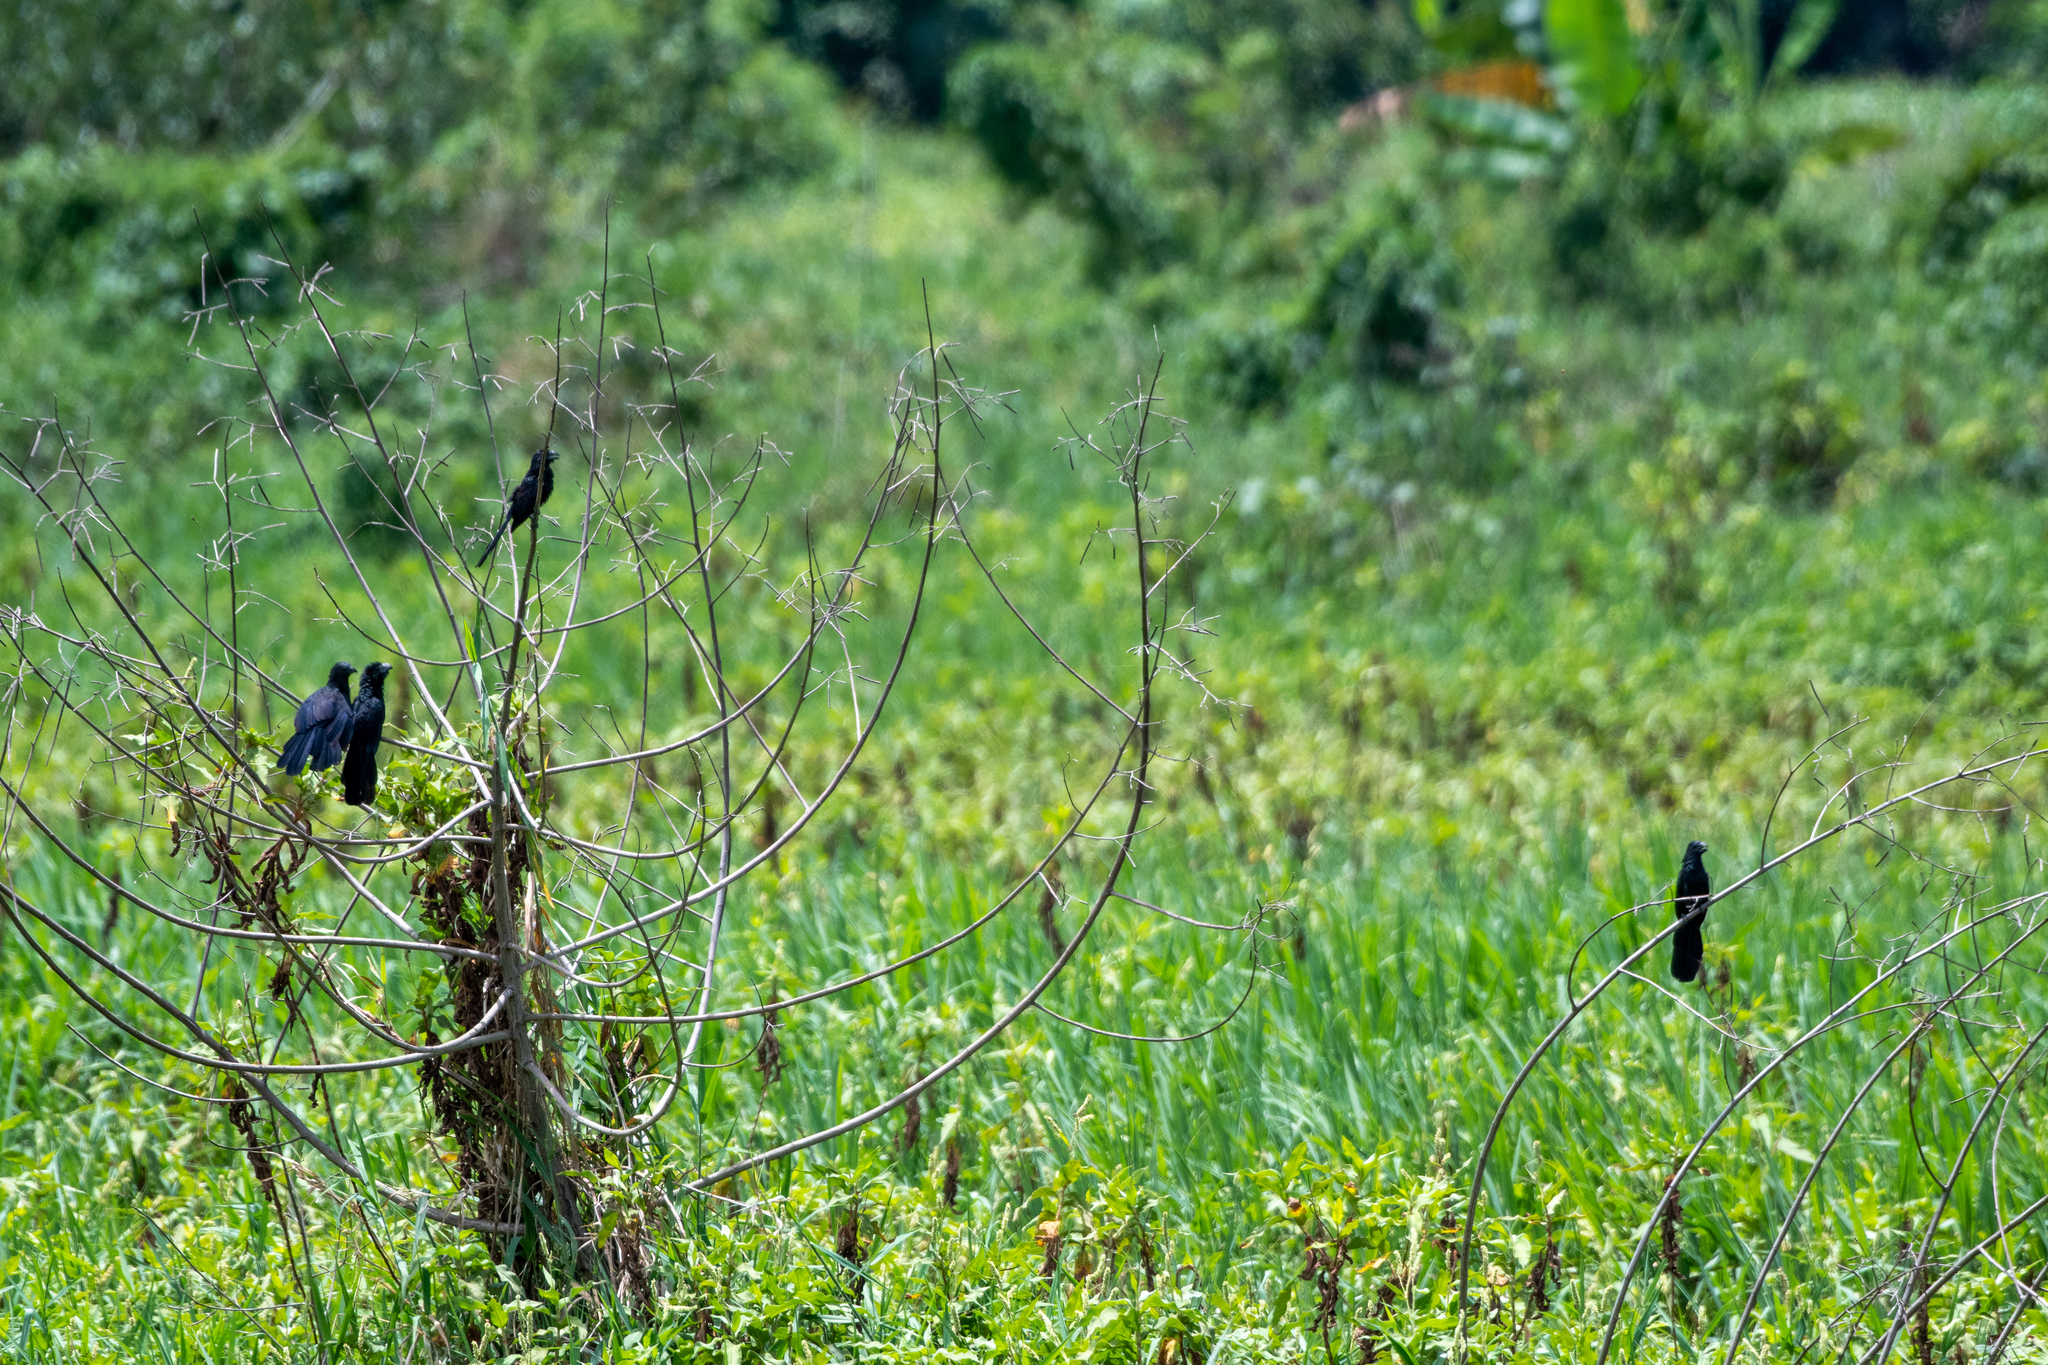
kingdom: Animalia
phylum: Chordata
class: Aves
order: Cuculiformes
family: Cuculidae
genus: Crotophaga
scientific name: Crotophaga sulcirostris
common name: Groove-billed ani
